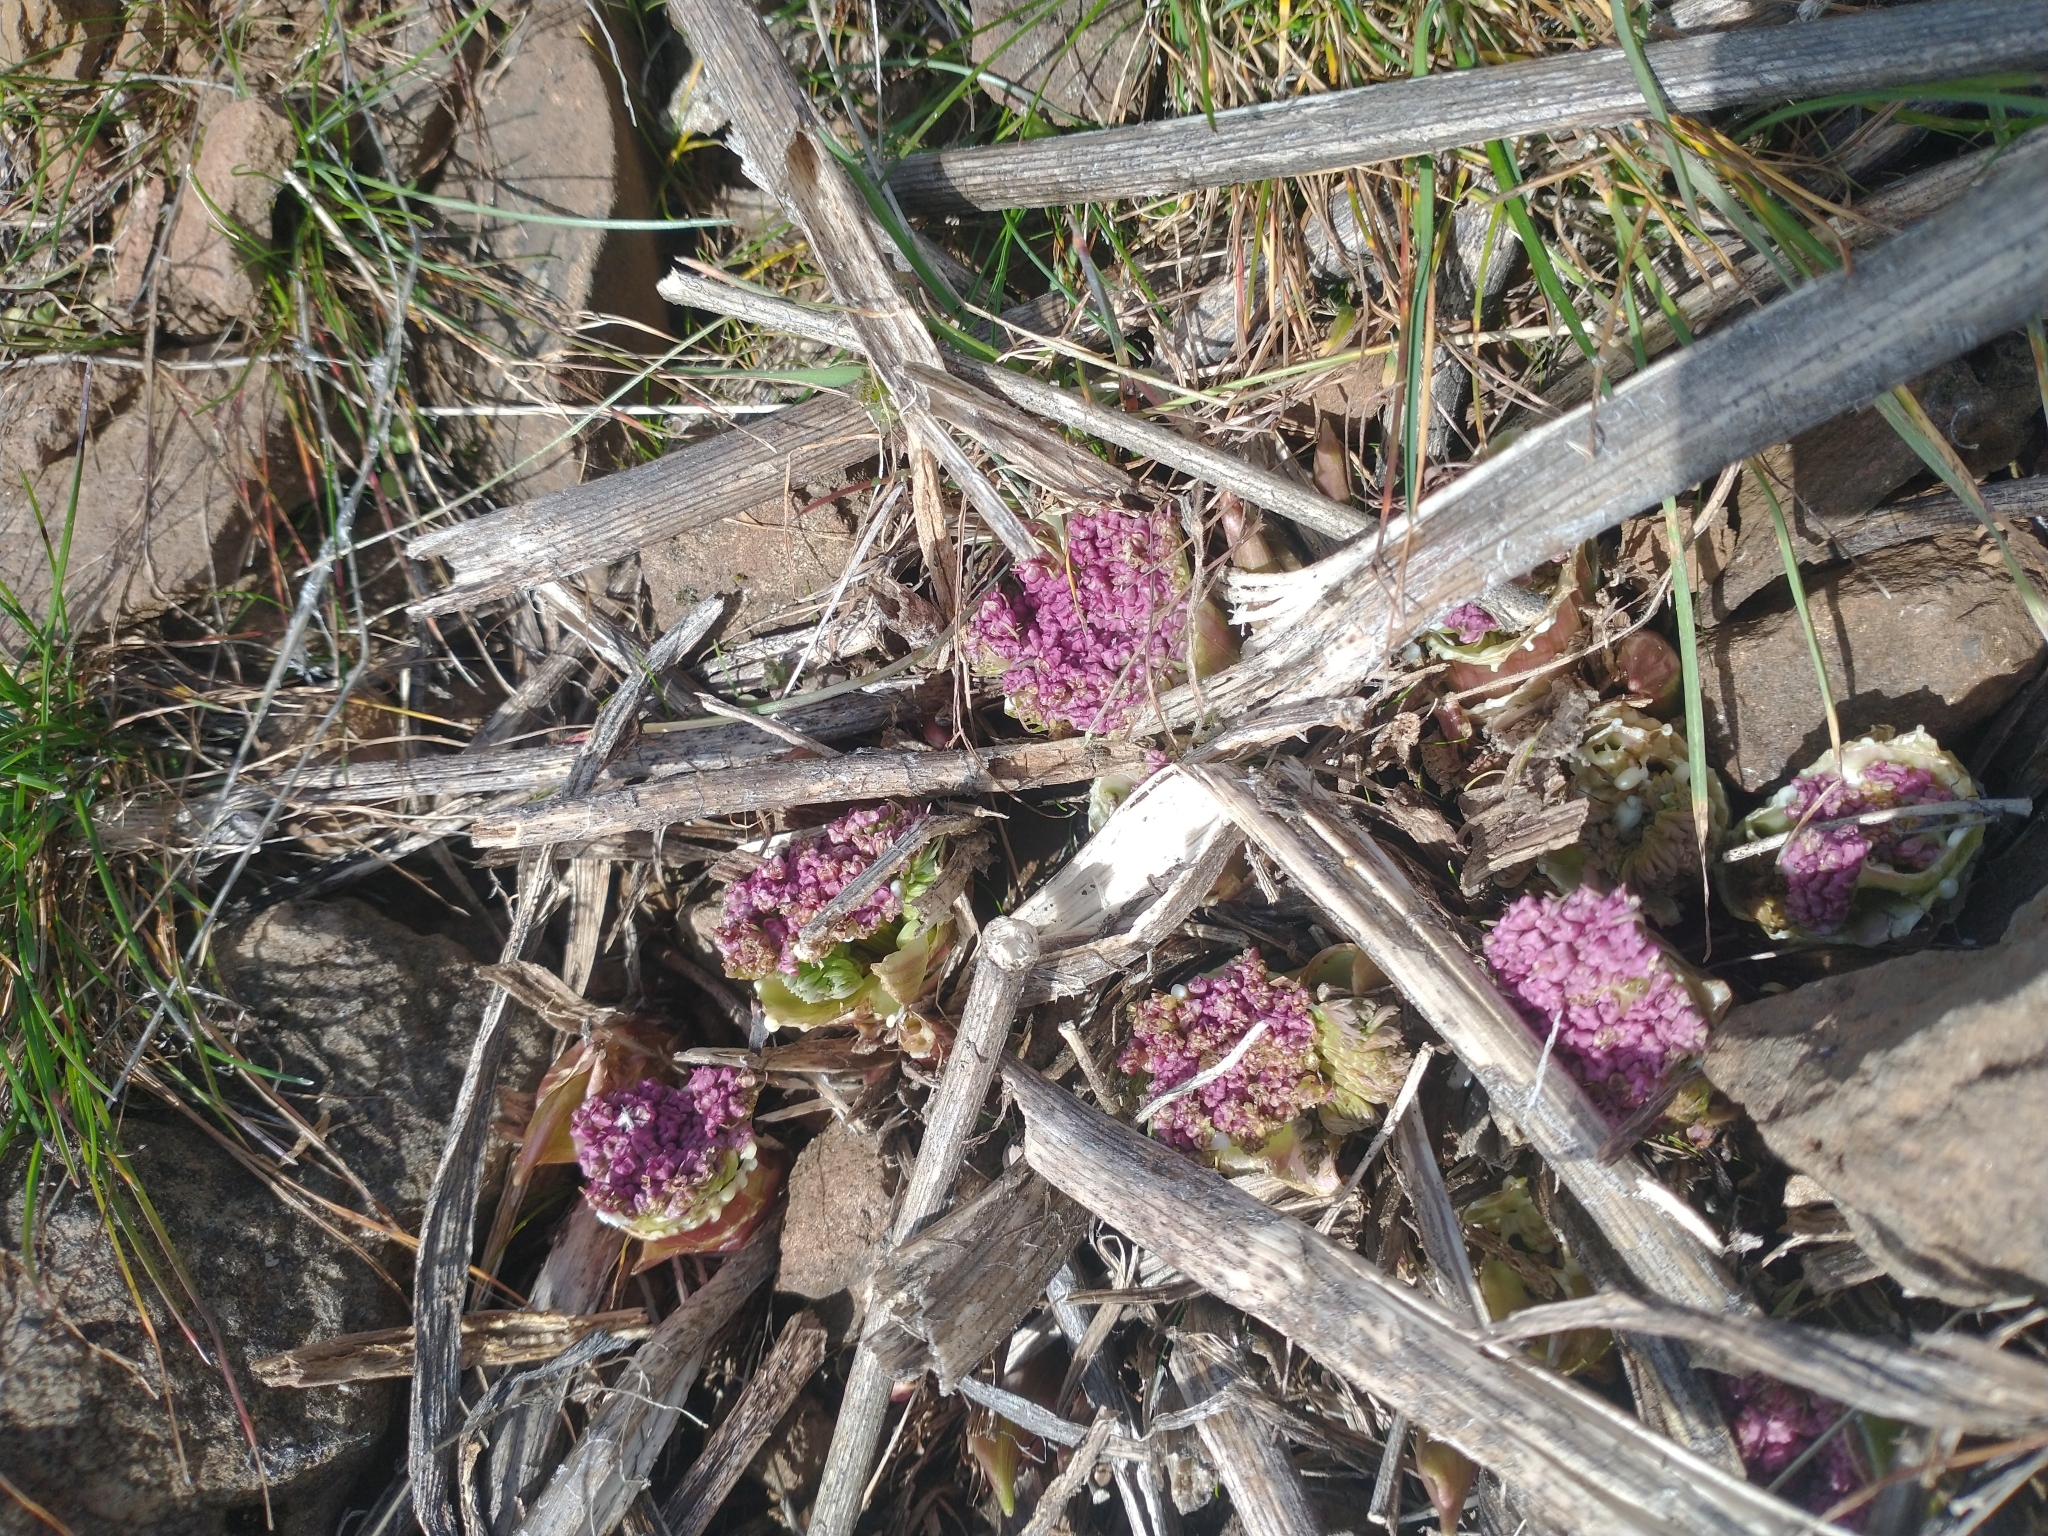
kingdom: Plantae
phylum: Tracheophyta
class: Magnoliopsida
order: Apiales
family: Apiaceae
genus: Lomatium
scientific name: Lomatium columbianum
